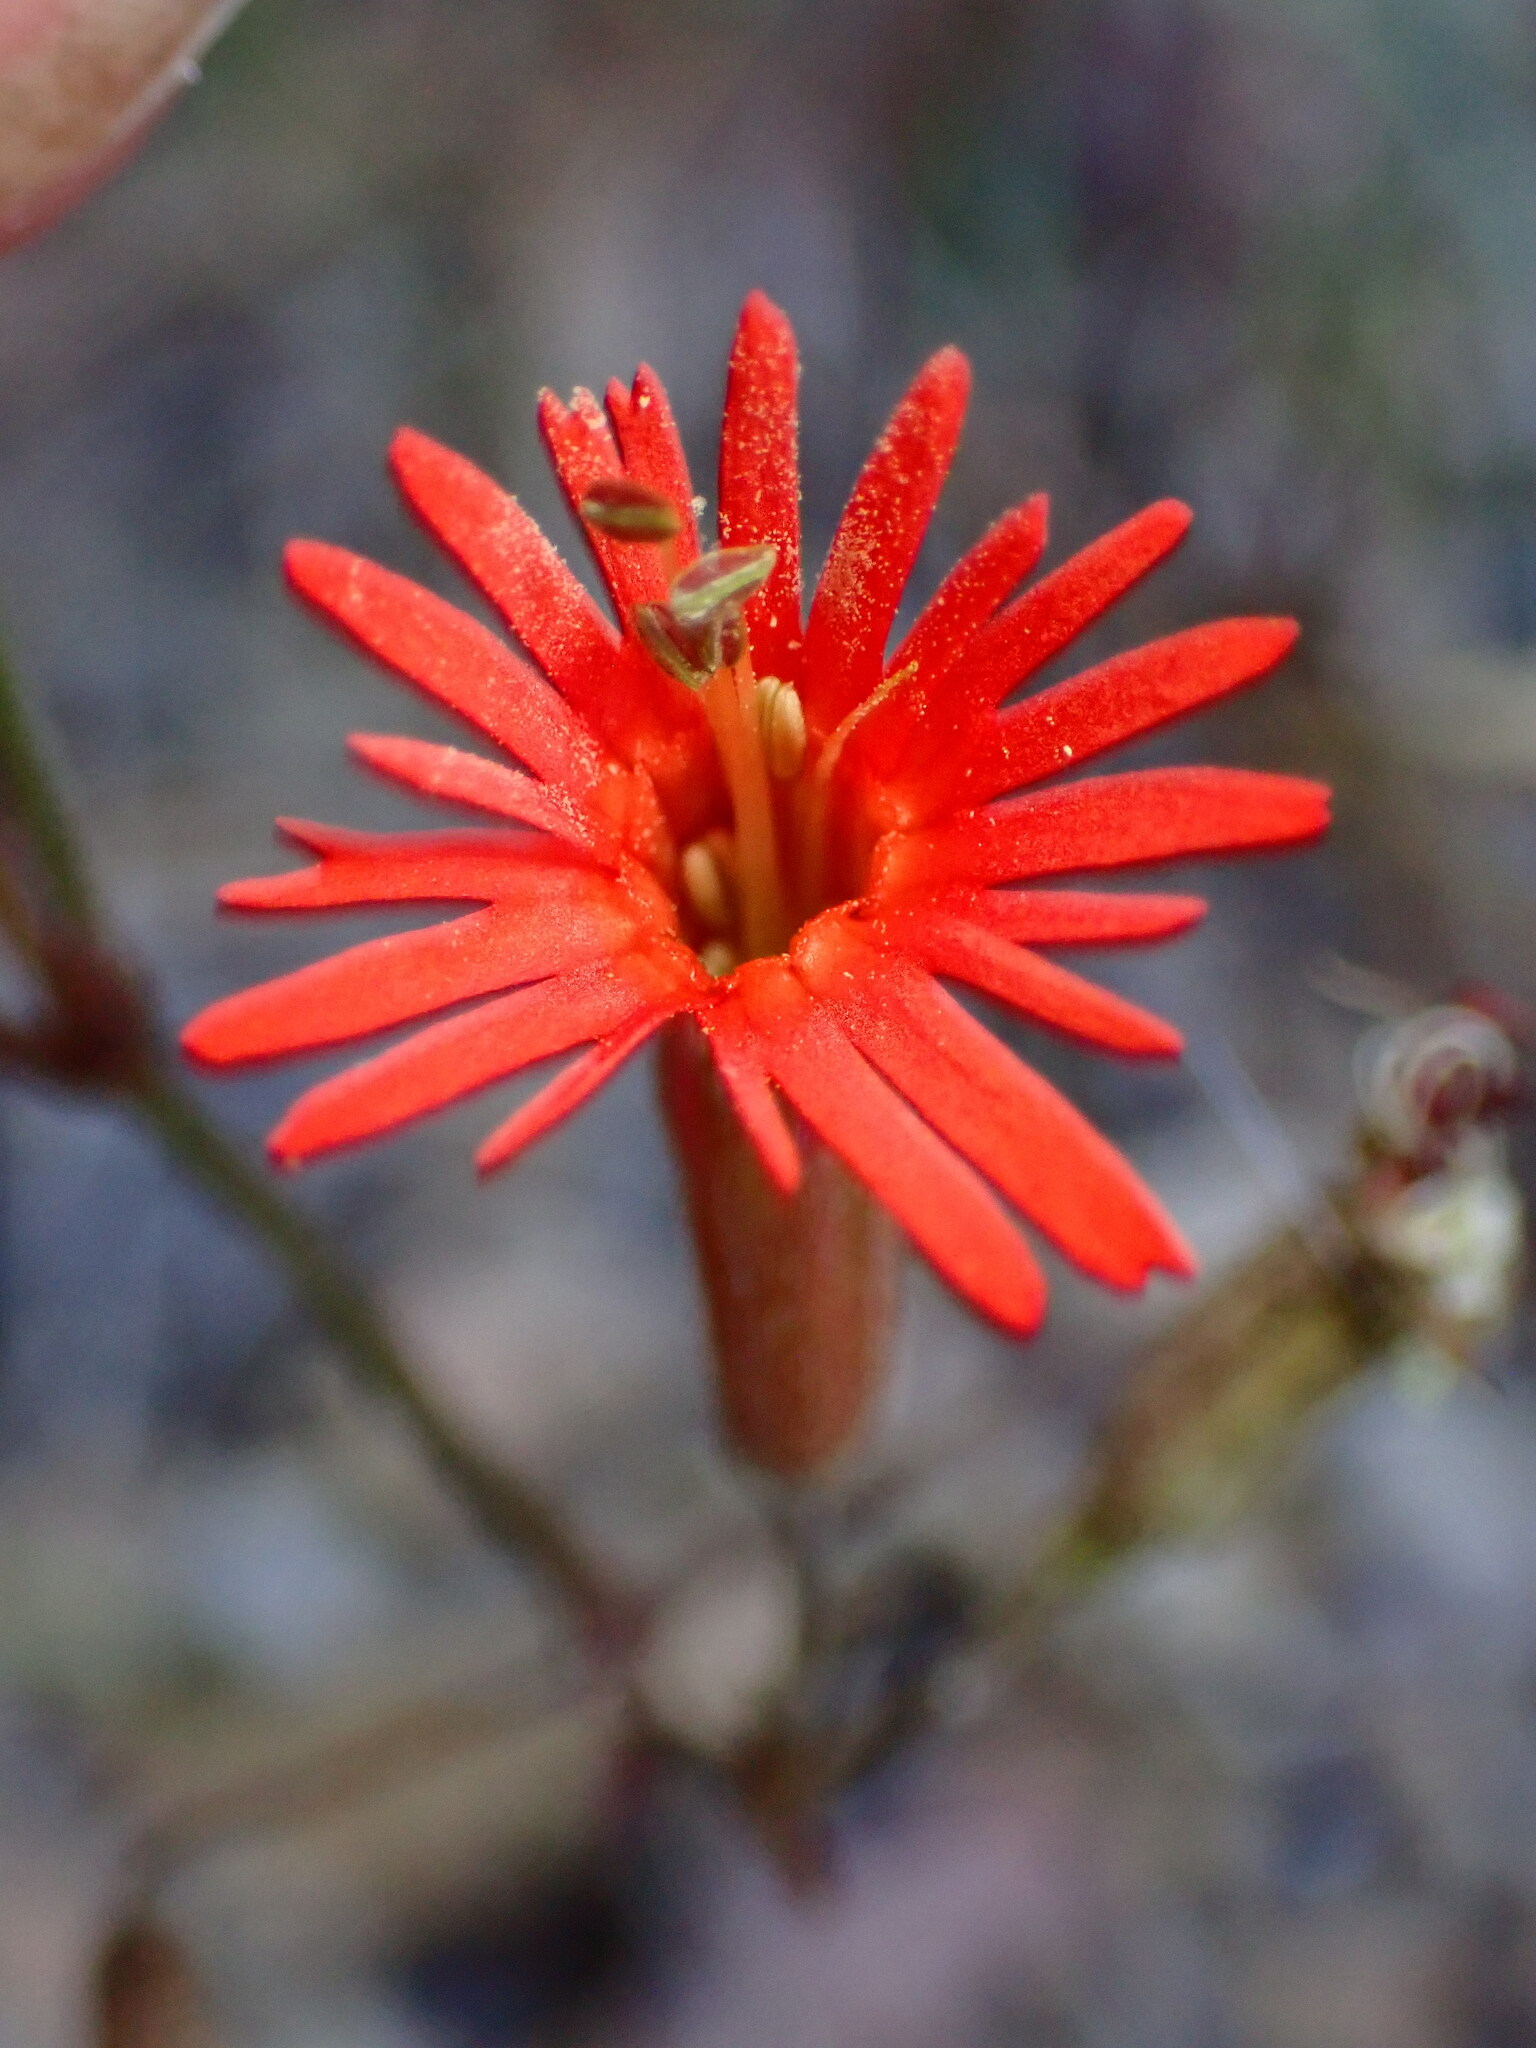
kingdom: Plantae
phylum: Tracheophyta
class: Magnoliopsida
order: Caryophyllales
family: Caryophyllaceae
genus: Silene
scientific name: Silene laciniata
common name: Indian-pink
